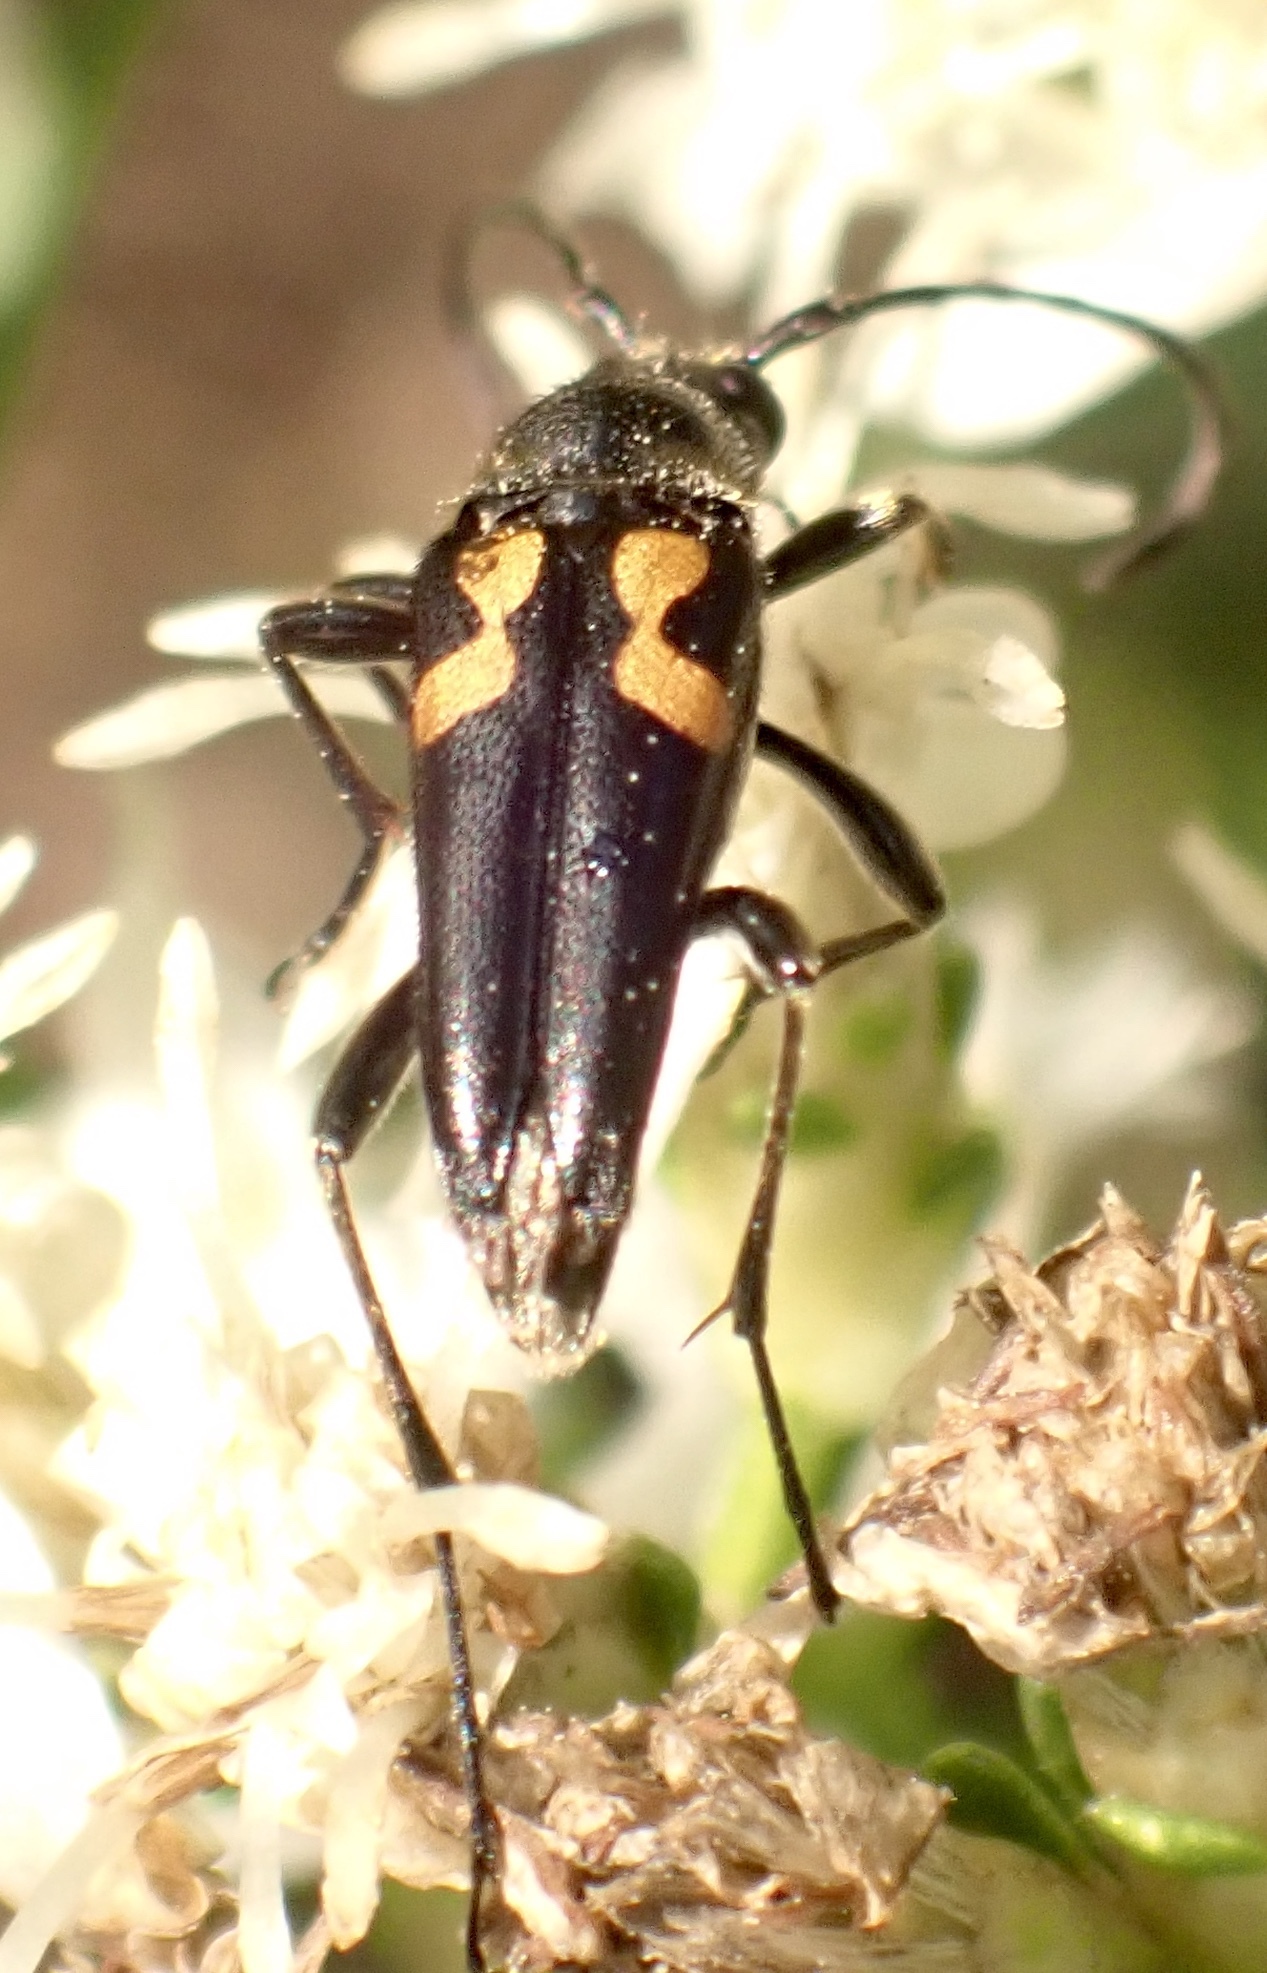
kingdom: Animalia
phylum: Arthropoda
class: Insecta
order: Coleoptera
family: Cerambycidae
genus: Typocerus
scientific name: Typocerus lunulatus
